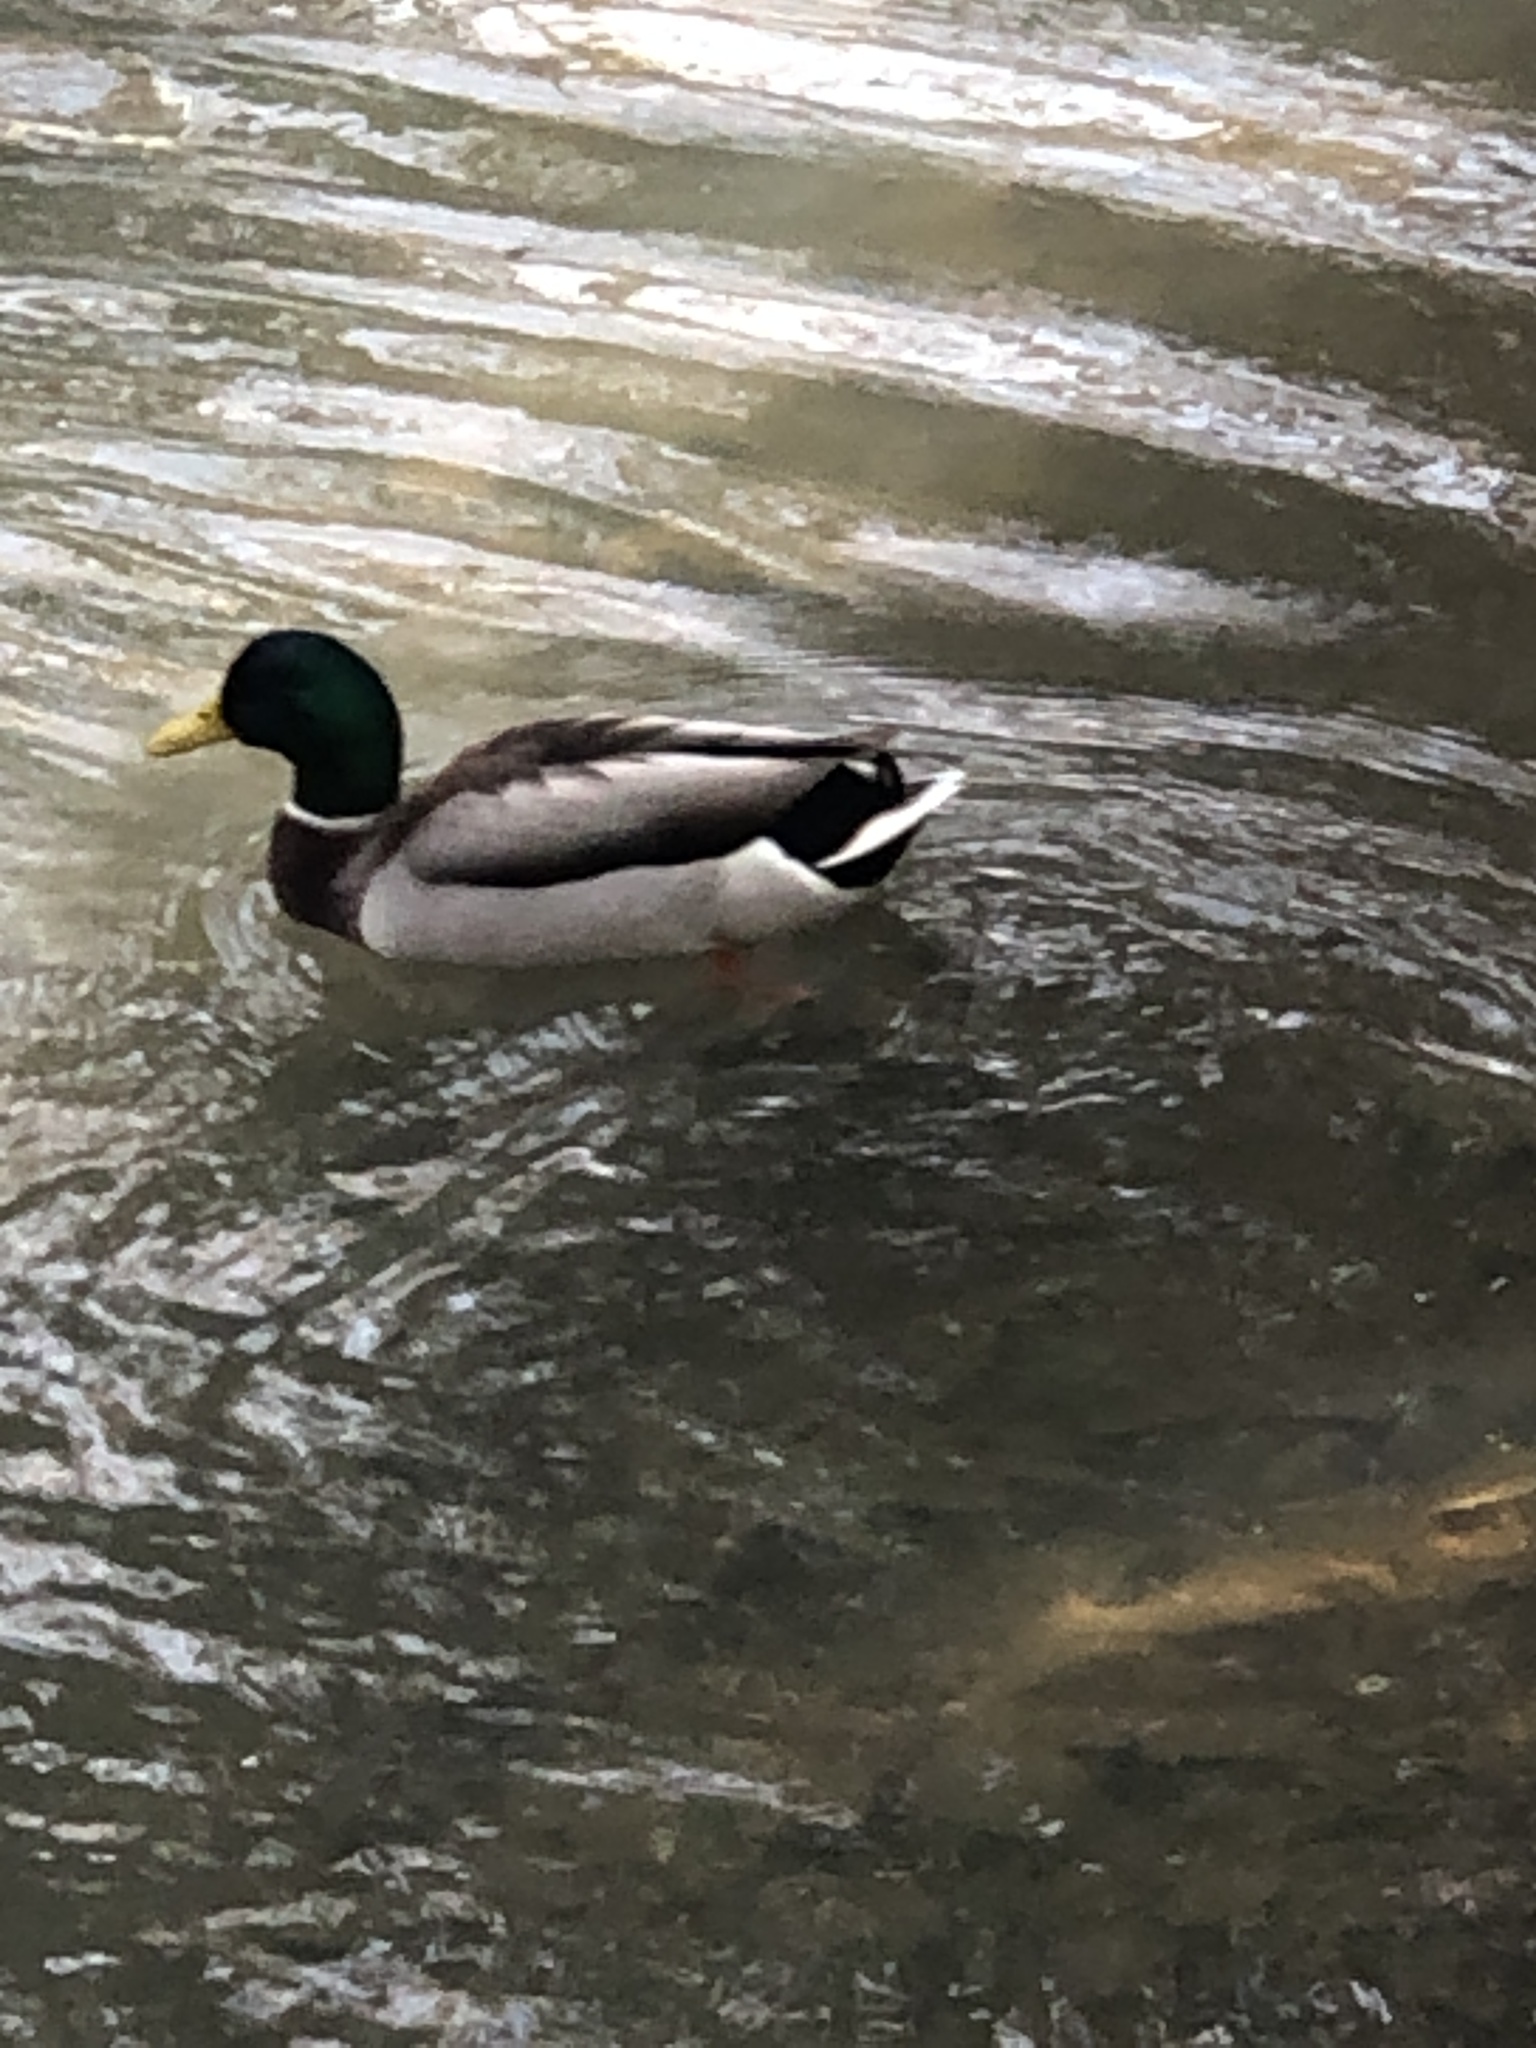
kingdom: Animalia
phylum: Chordata
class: Aves
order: Anseriformes
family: Anatidae
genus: Anas
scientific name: Anas platyrhynchos
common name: Mallard
